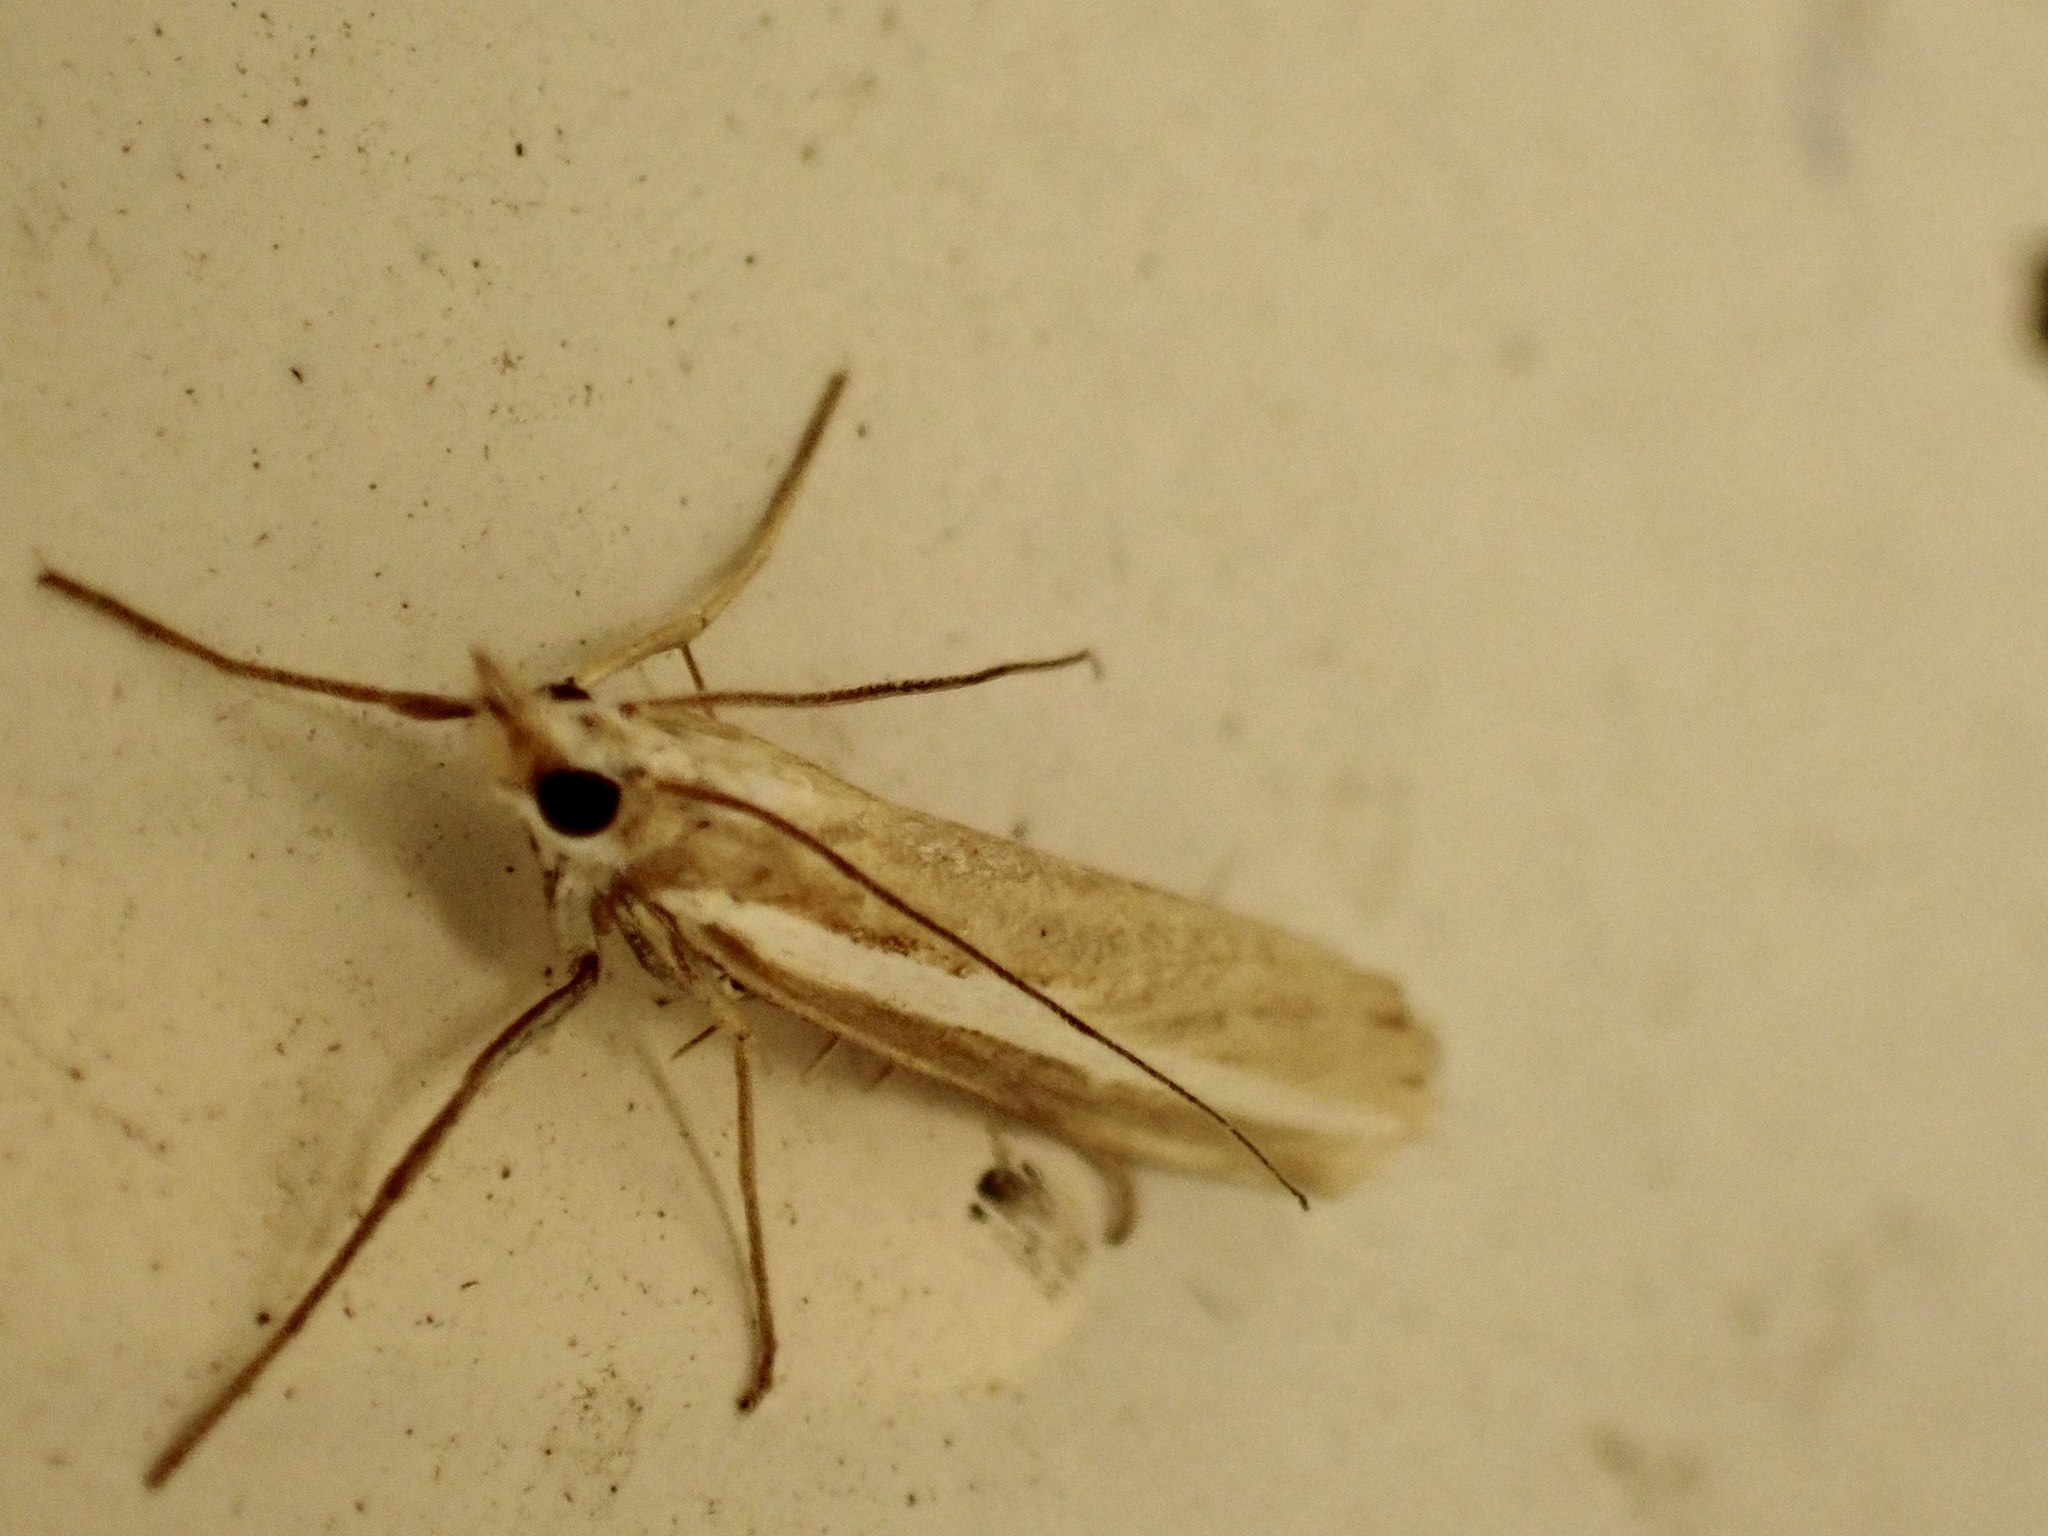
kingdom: Animalia
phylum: Arthropoda
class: Insecta
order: Lepidoptera
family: Crambidae
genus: Orocrambus
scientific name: Orocrambus vittellus
